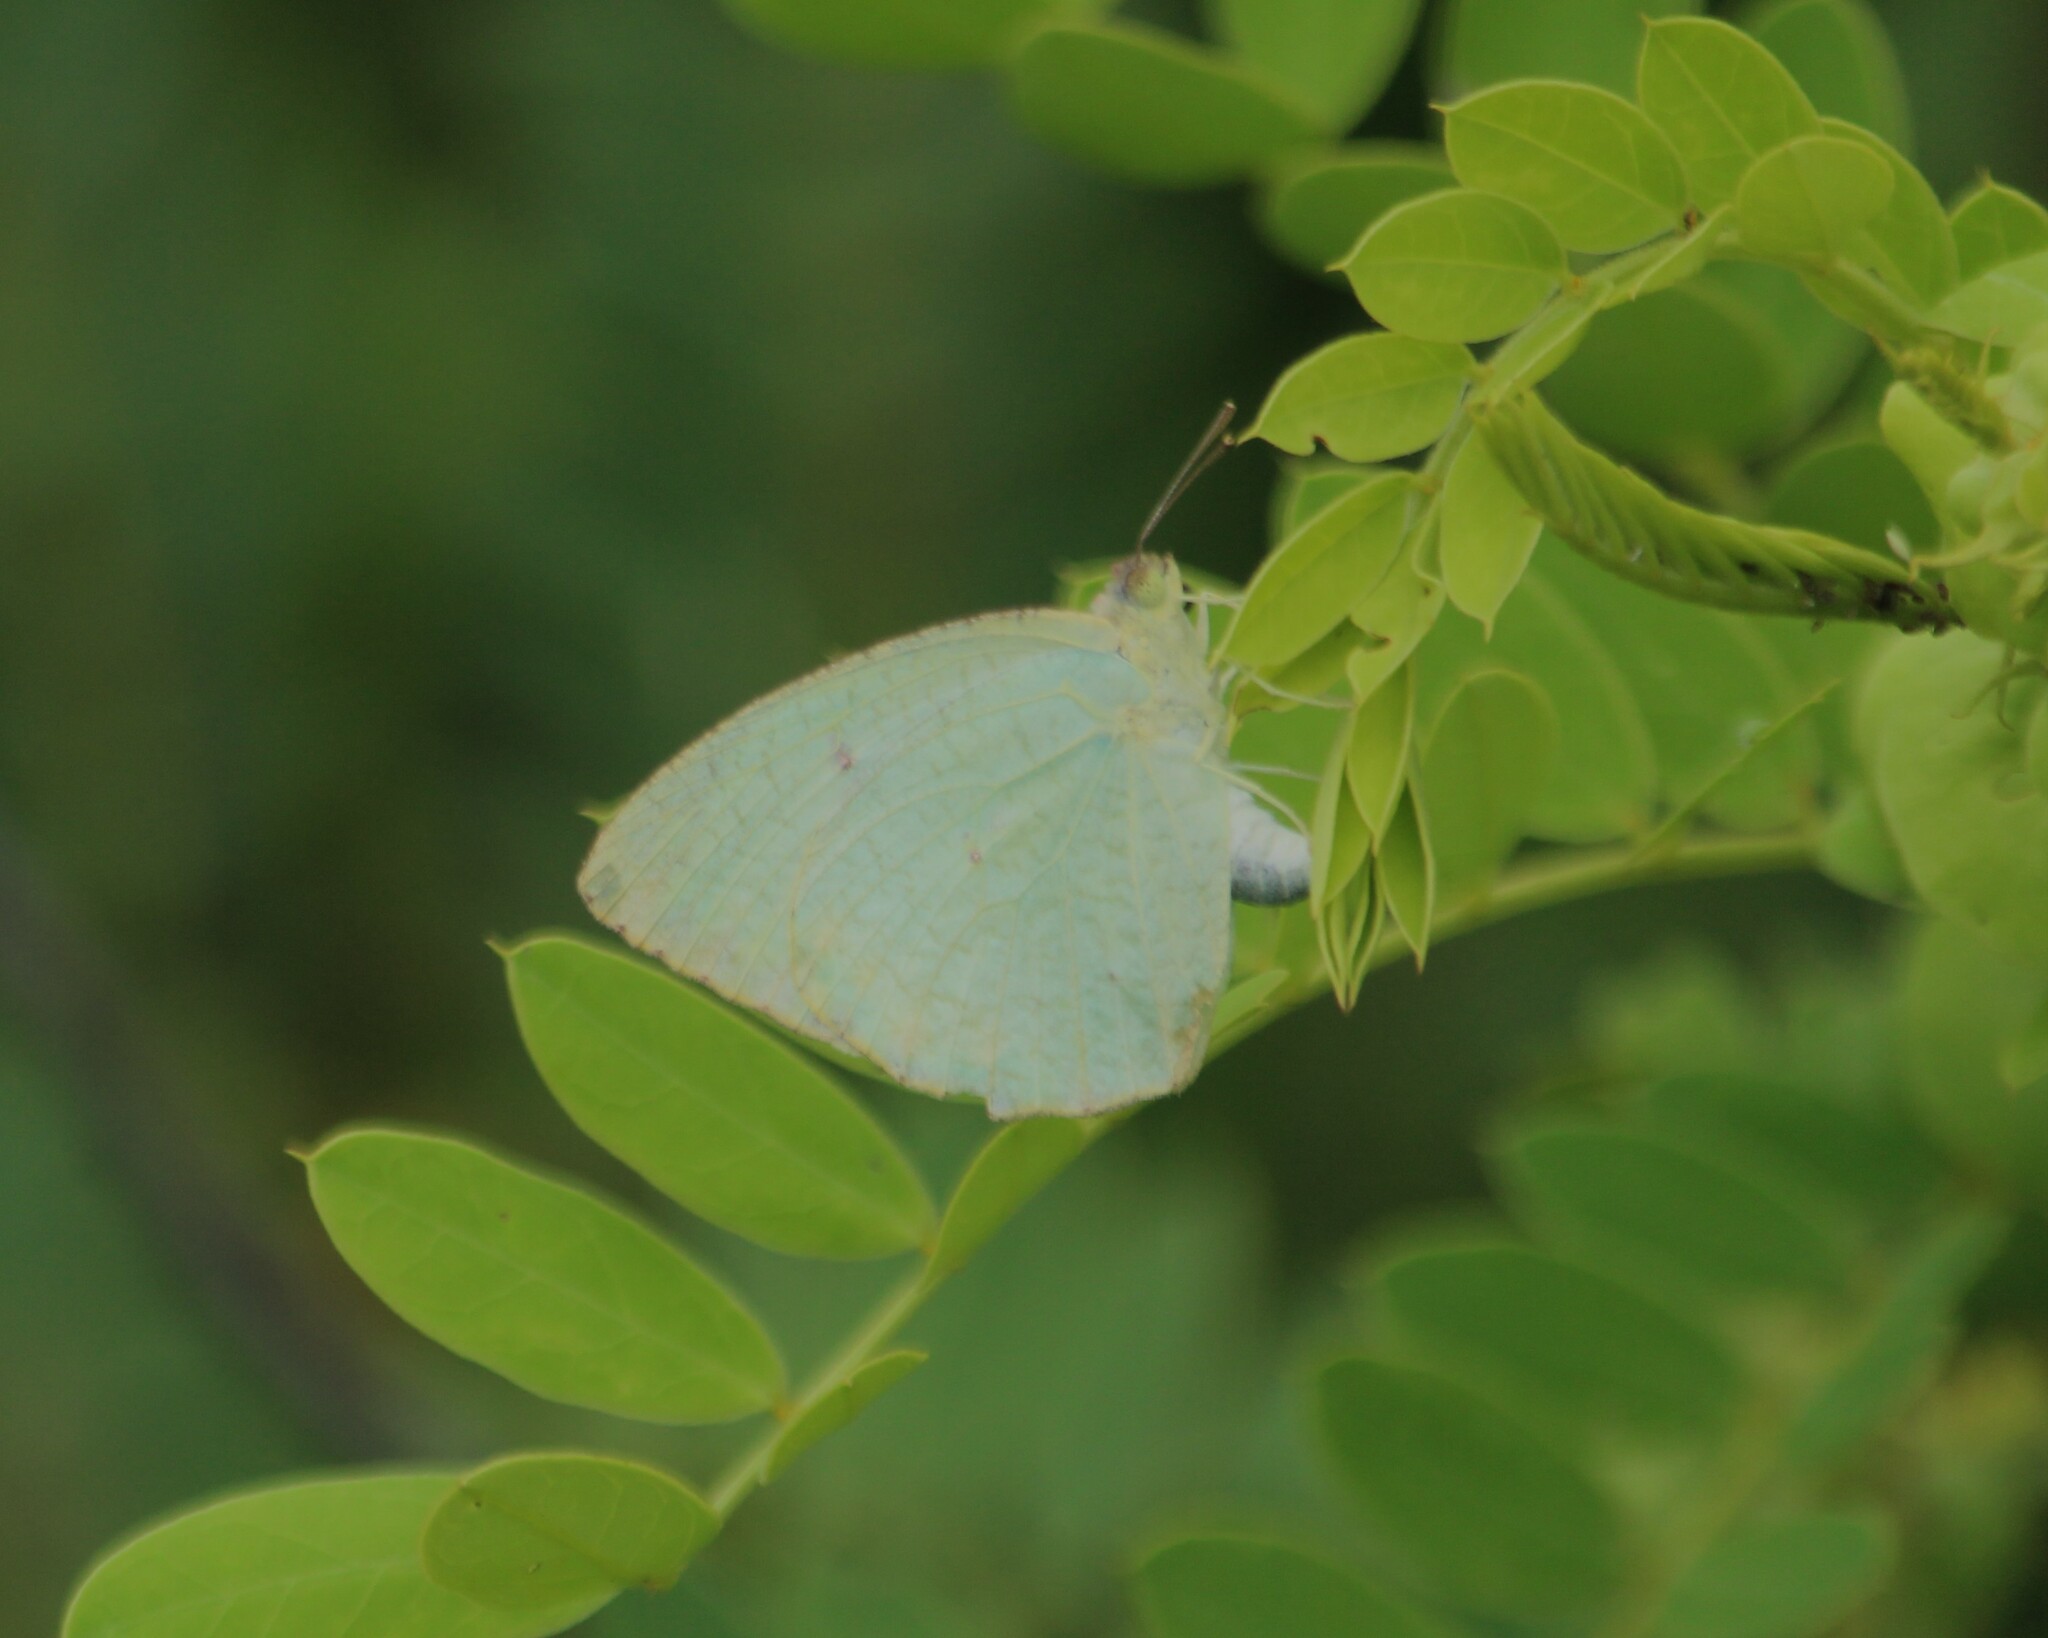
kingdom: Animalia
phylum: Arthropoda
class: Insecta
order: Lepidoptera
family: Pieridae
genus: Catopsilia
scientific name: Catopsilia pyranthe
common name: Mottled emigrant
